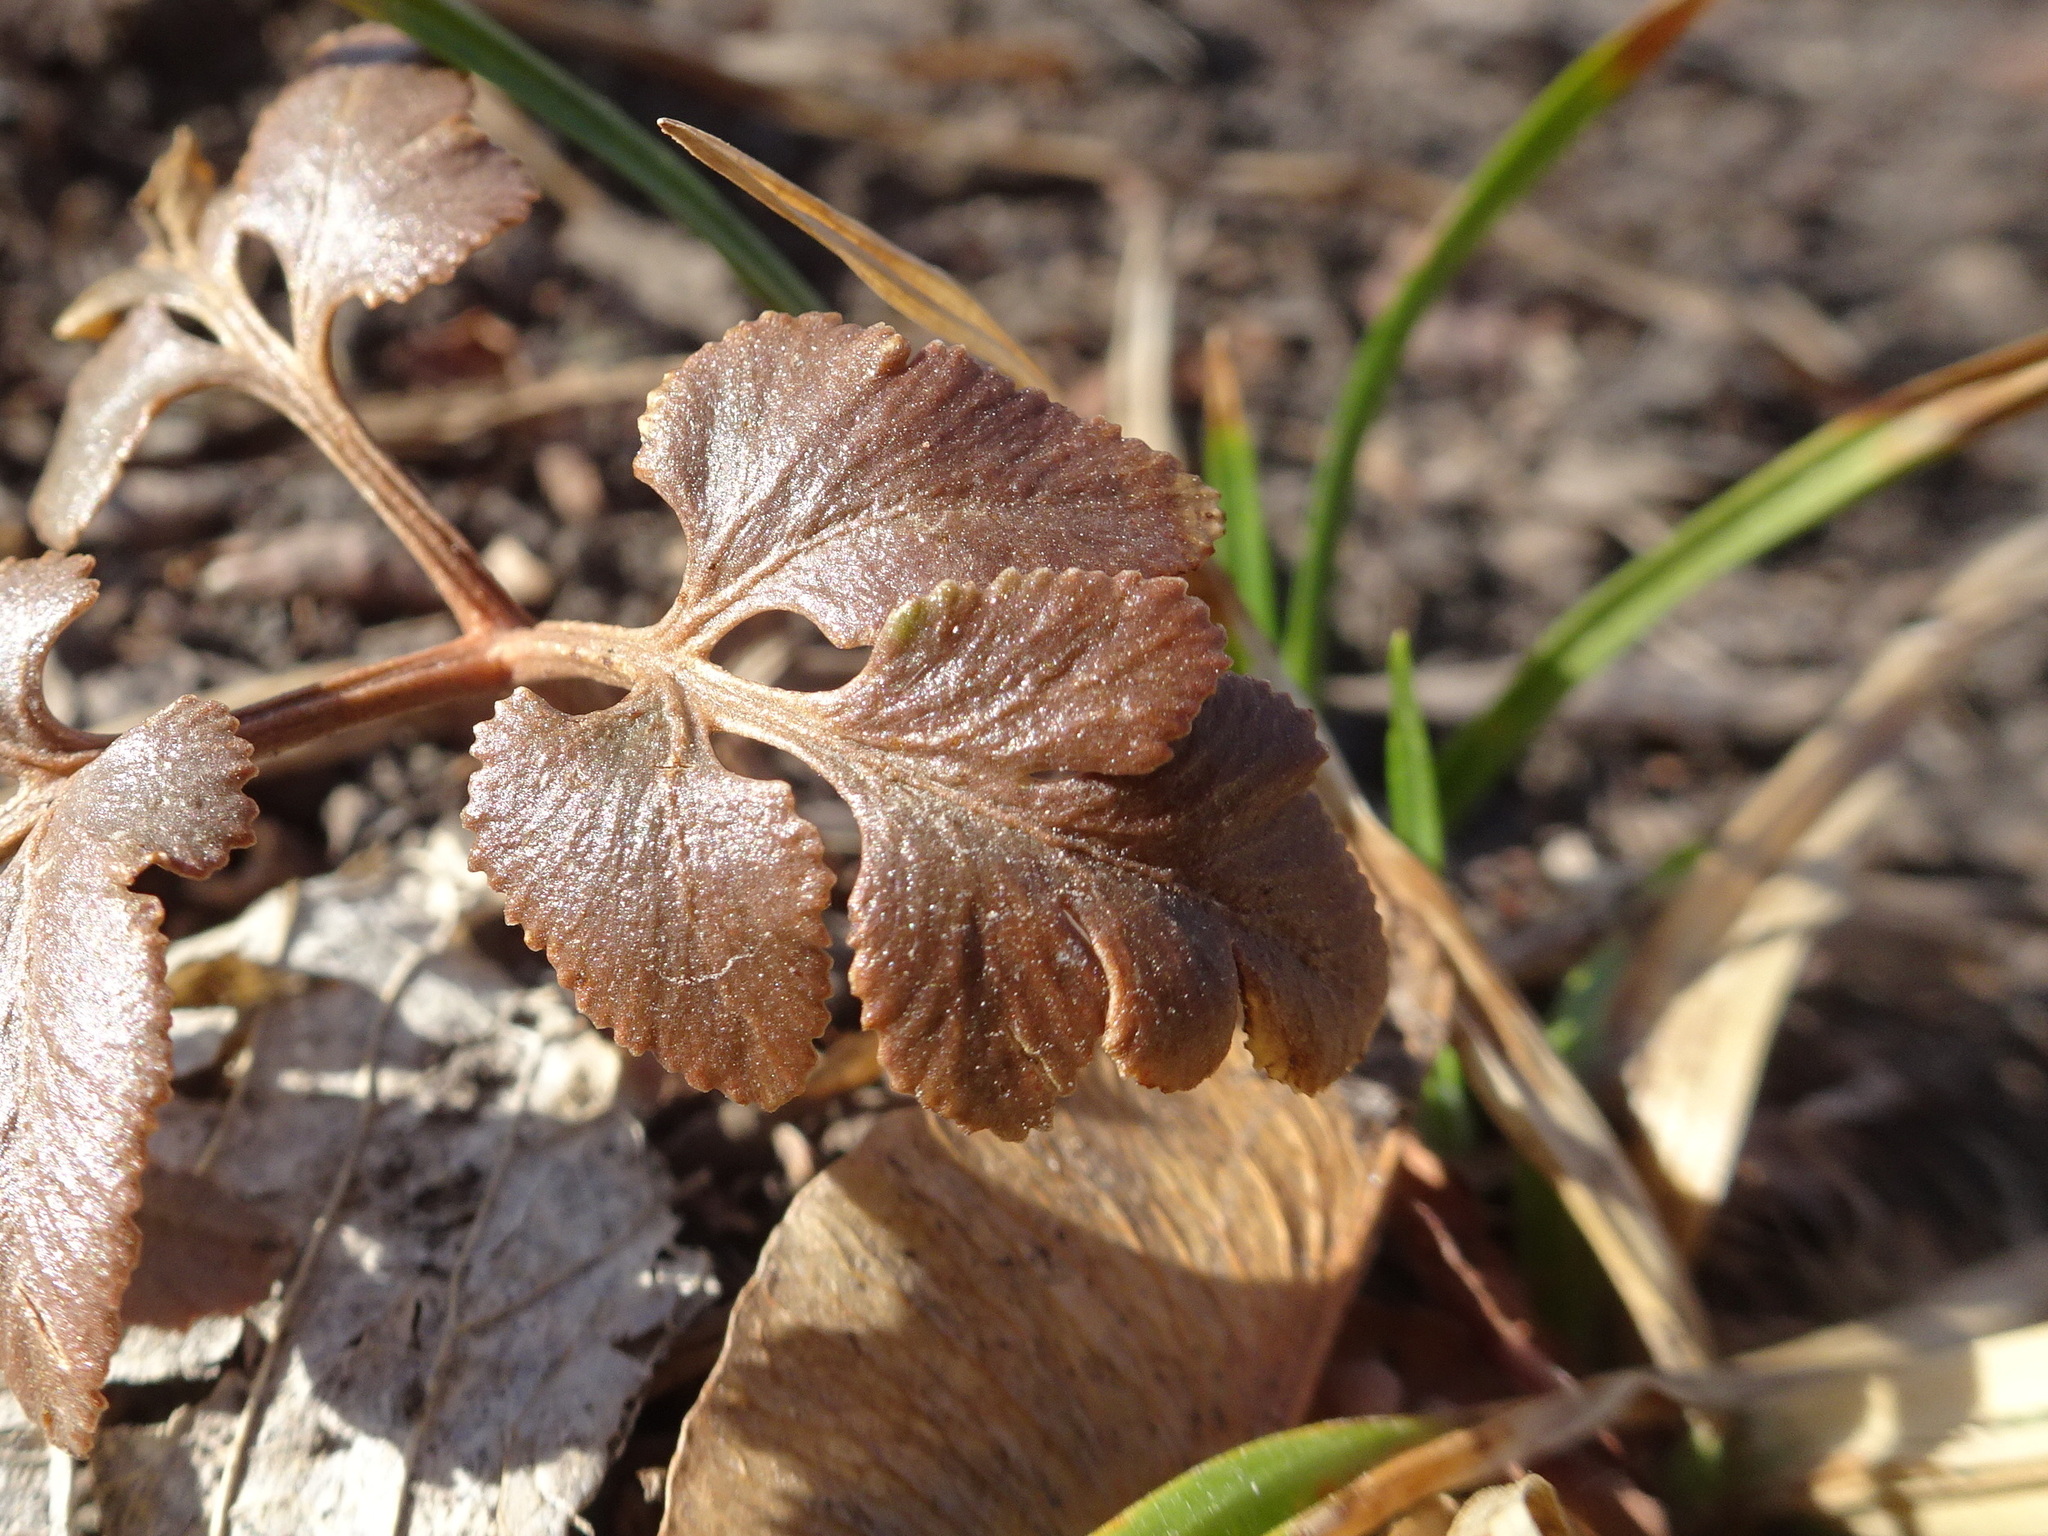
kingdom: Plantae
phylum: Tracheophyta
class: Polypodiopsida
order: Ophioglossales
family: Ophioglossaceae
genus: Sceptridium
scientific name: Sceptridium dissectum
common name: Cut-leaved grapefern
